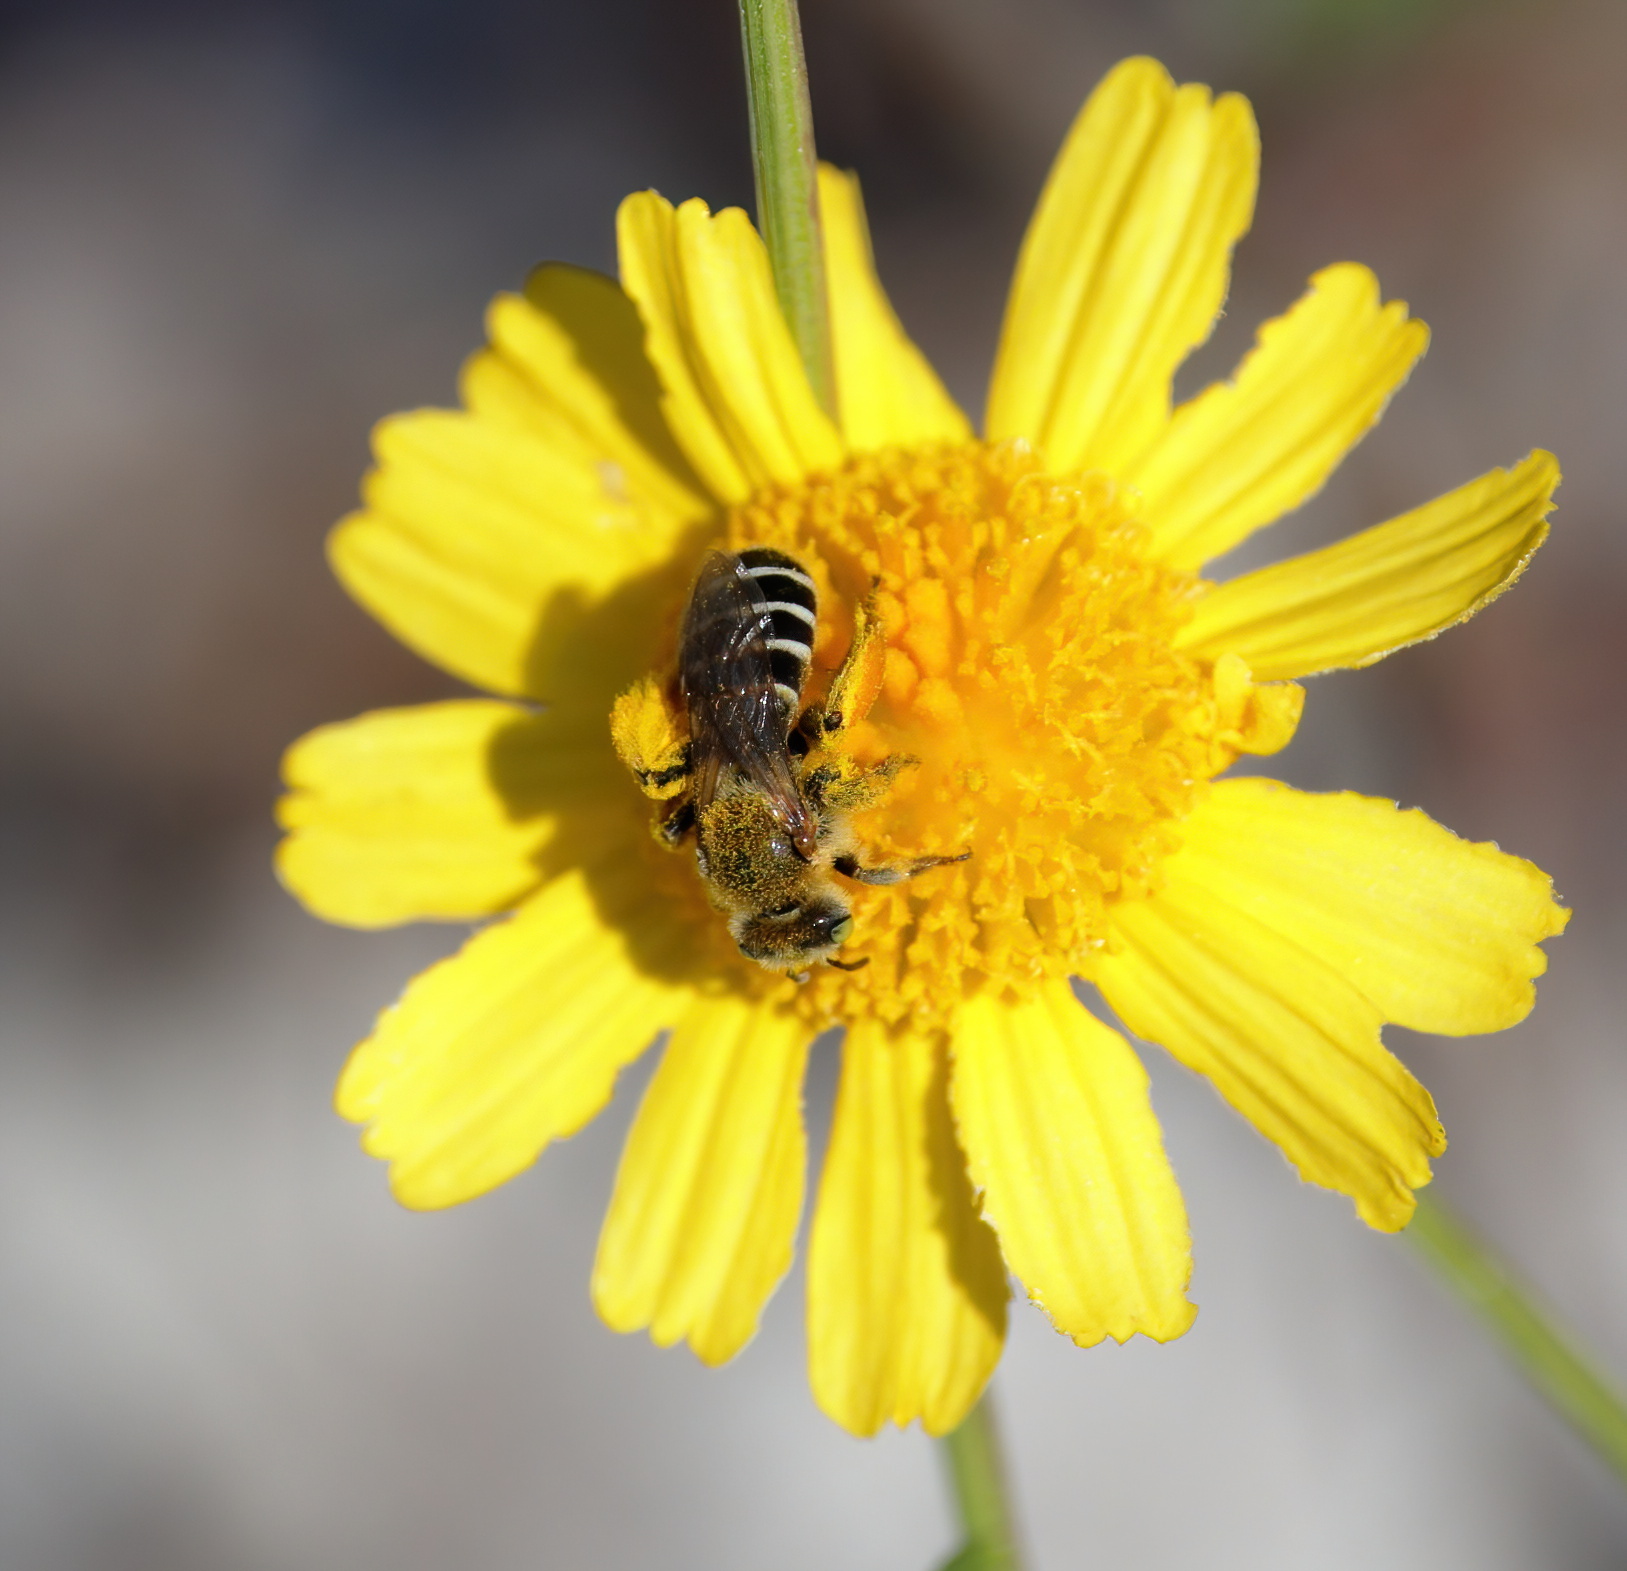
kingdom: Animalia
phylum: Arthropoda
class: Insecta
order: Hymenoptera
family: Melittidae
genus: Hesperapis
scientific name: Hesperapis oraria
